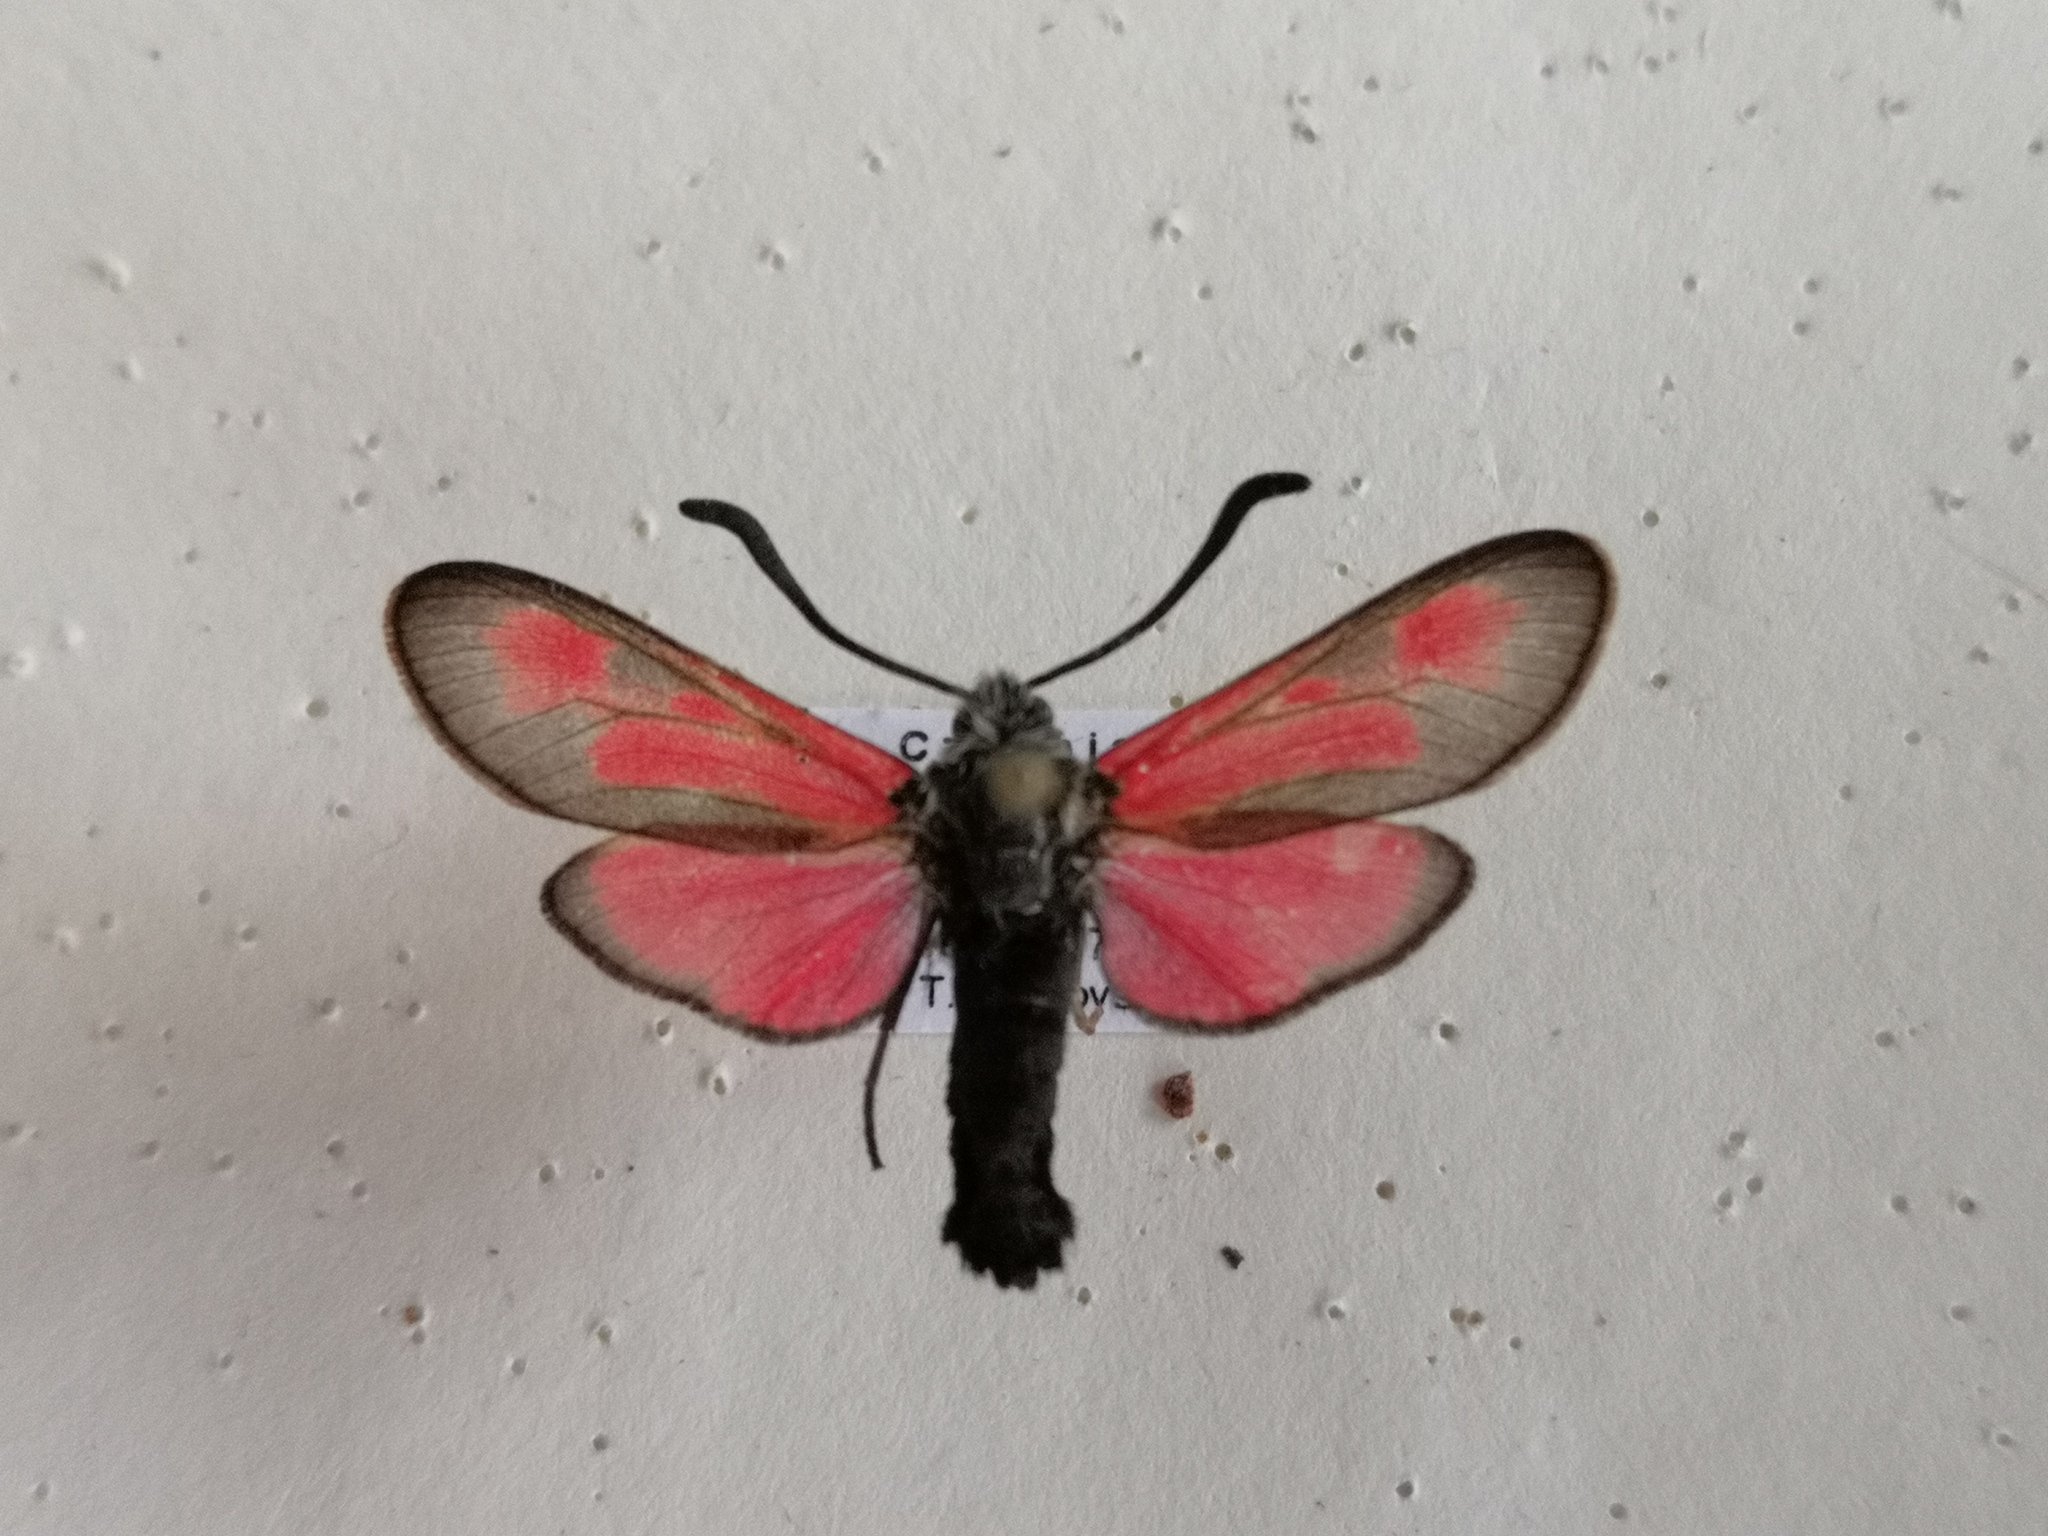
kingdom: Animalia
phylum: Arthropoda
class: Insecta
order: Lepidoptera
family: Zygaenidae
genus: Zygaena
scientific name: Zygaena punctum
